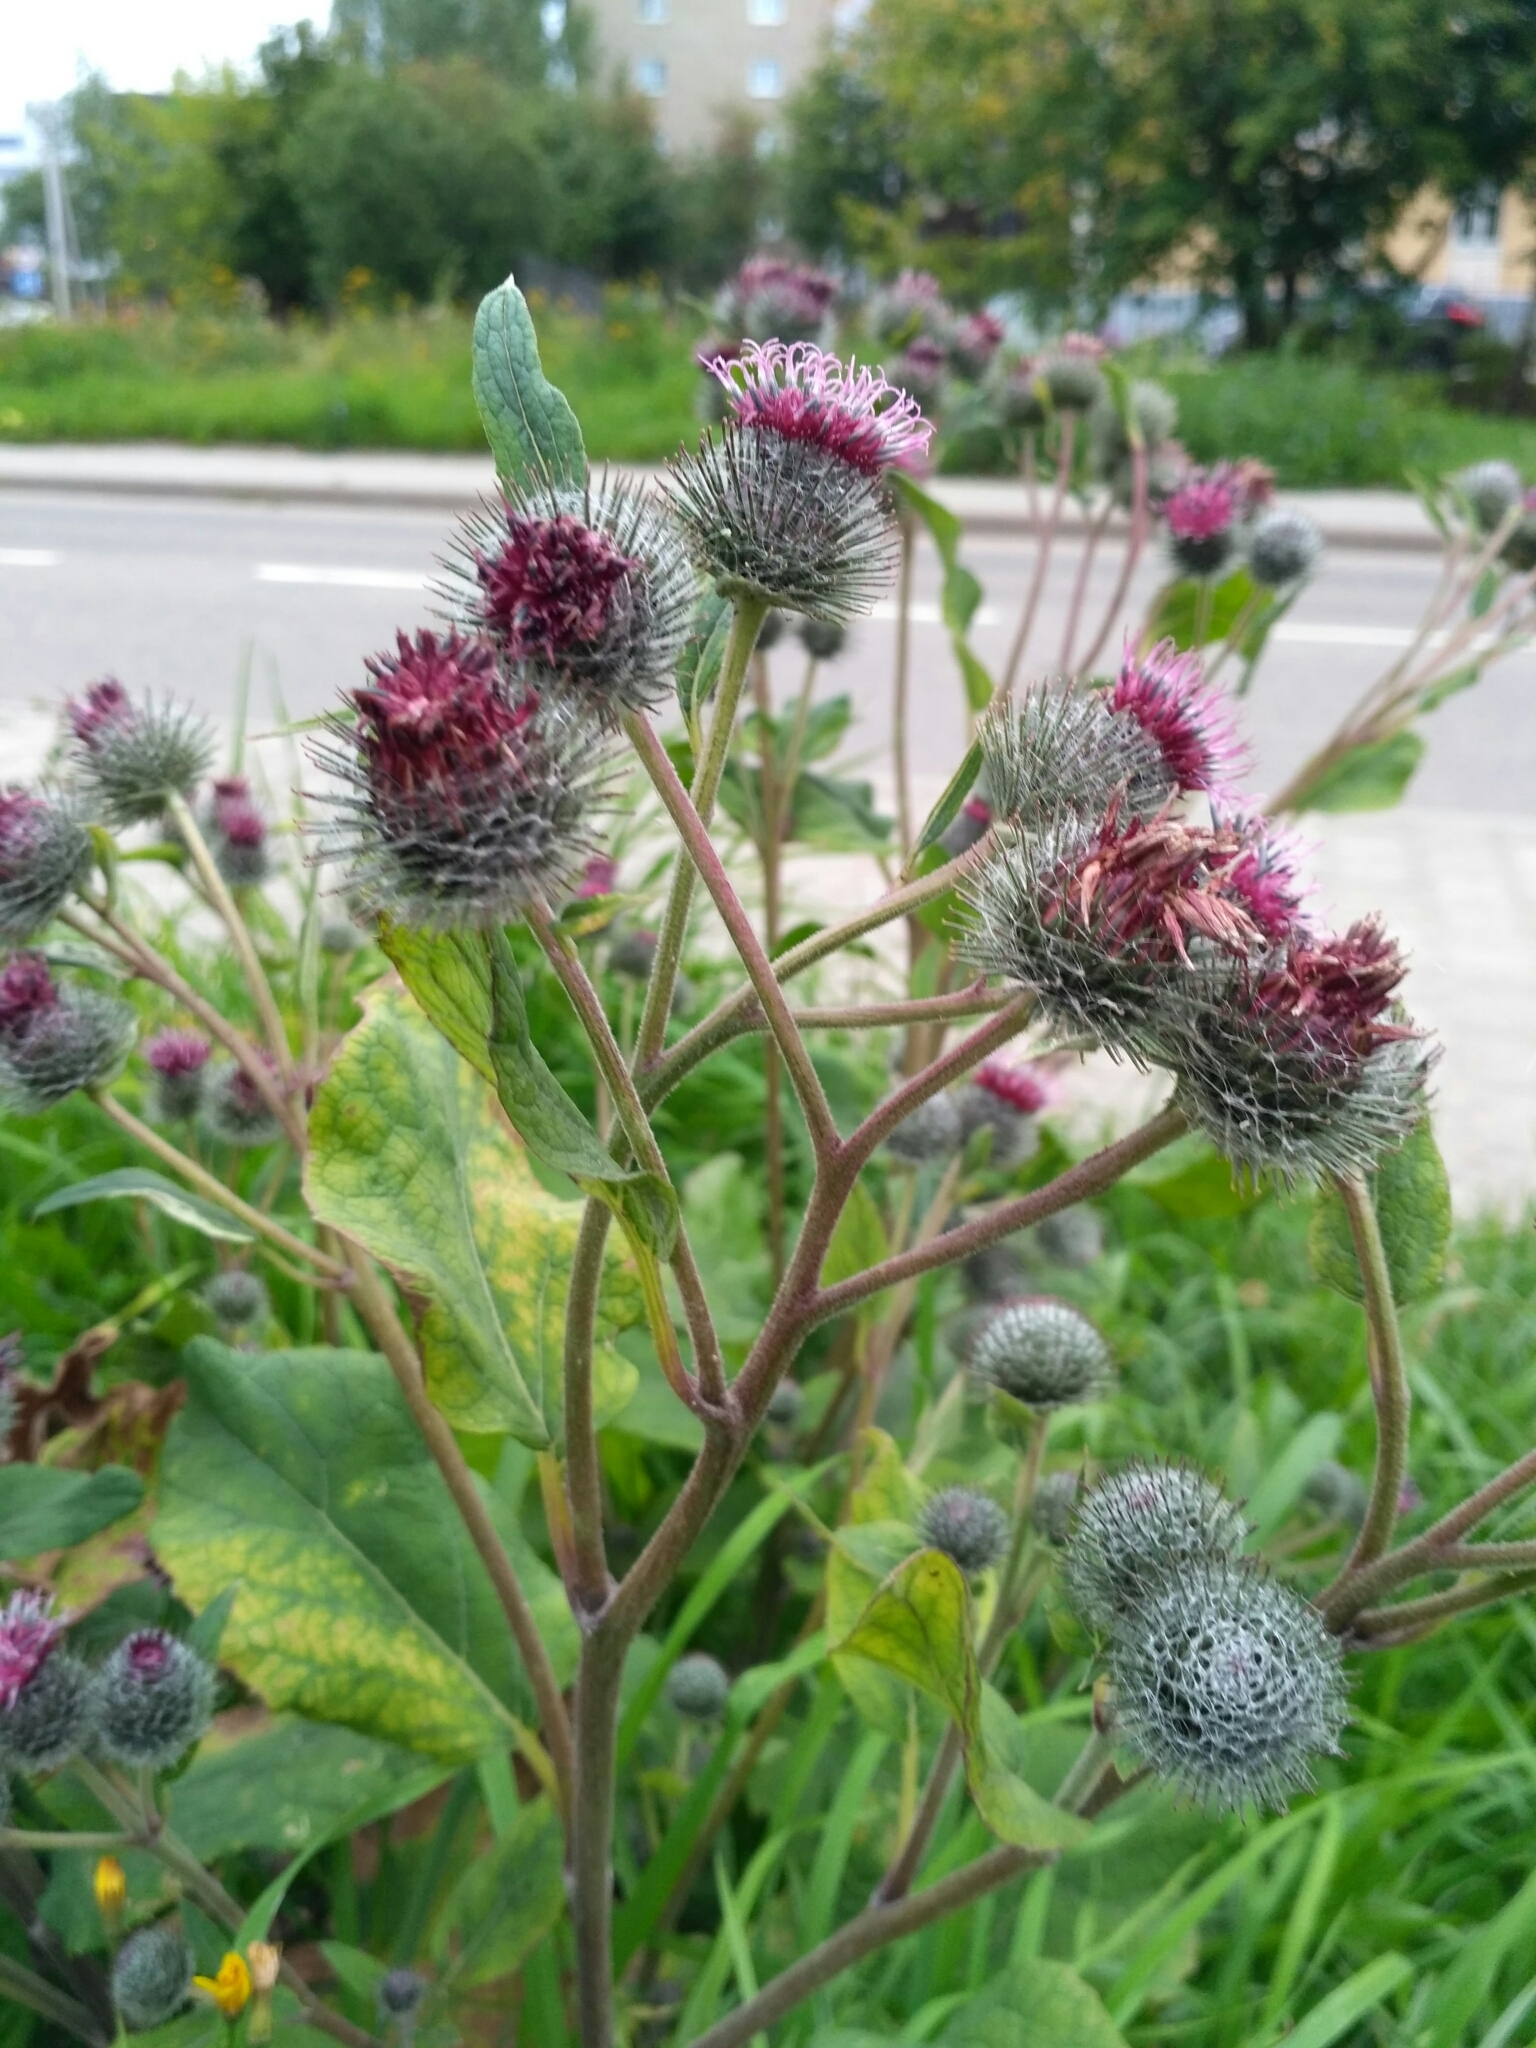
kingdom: Plantae
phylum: Tracheophyta
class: Magnoliopsida
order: Asterales
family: Asteraceae
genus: Arctium
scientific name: Arctium tomentosum
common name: Woolly burdock
